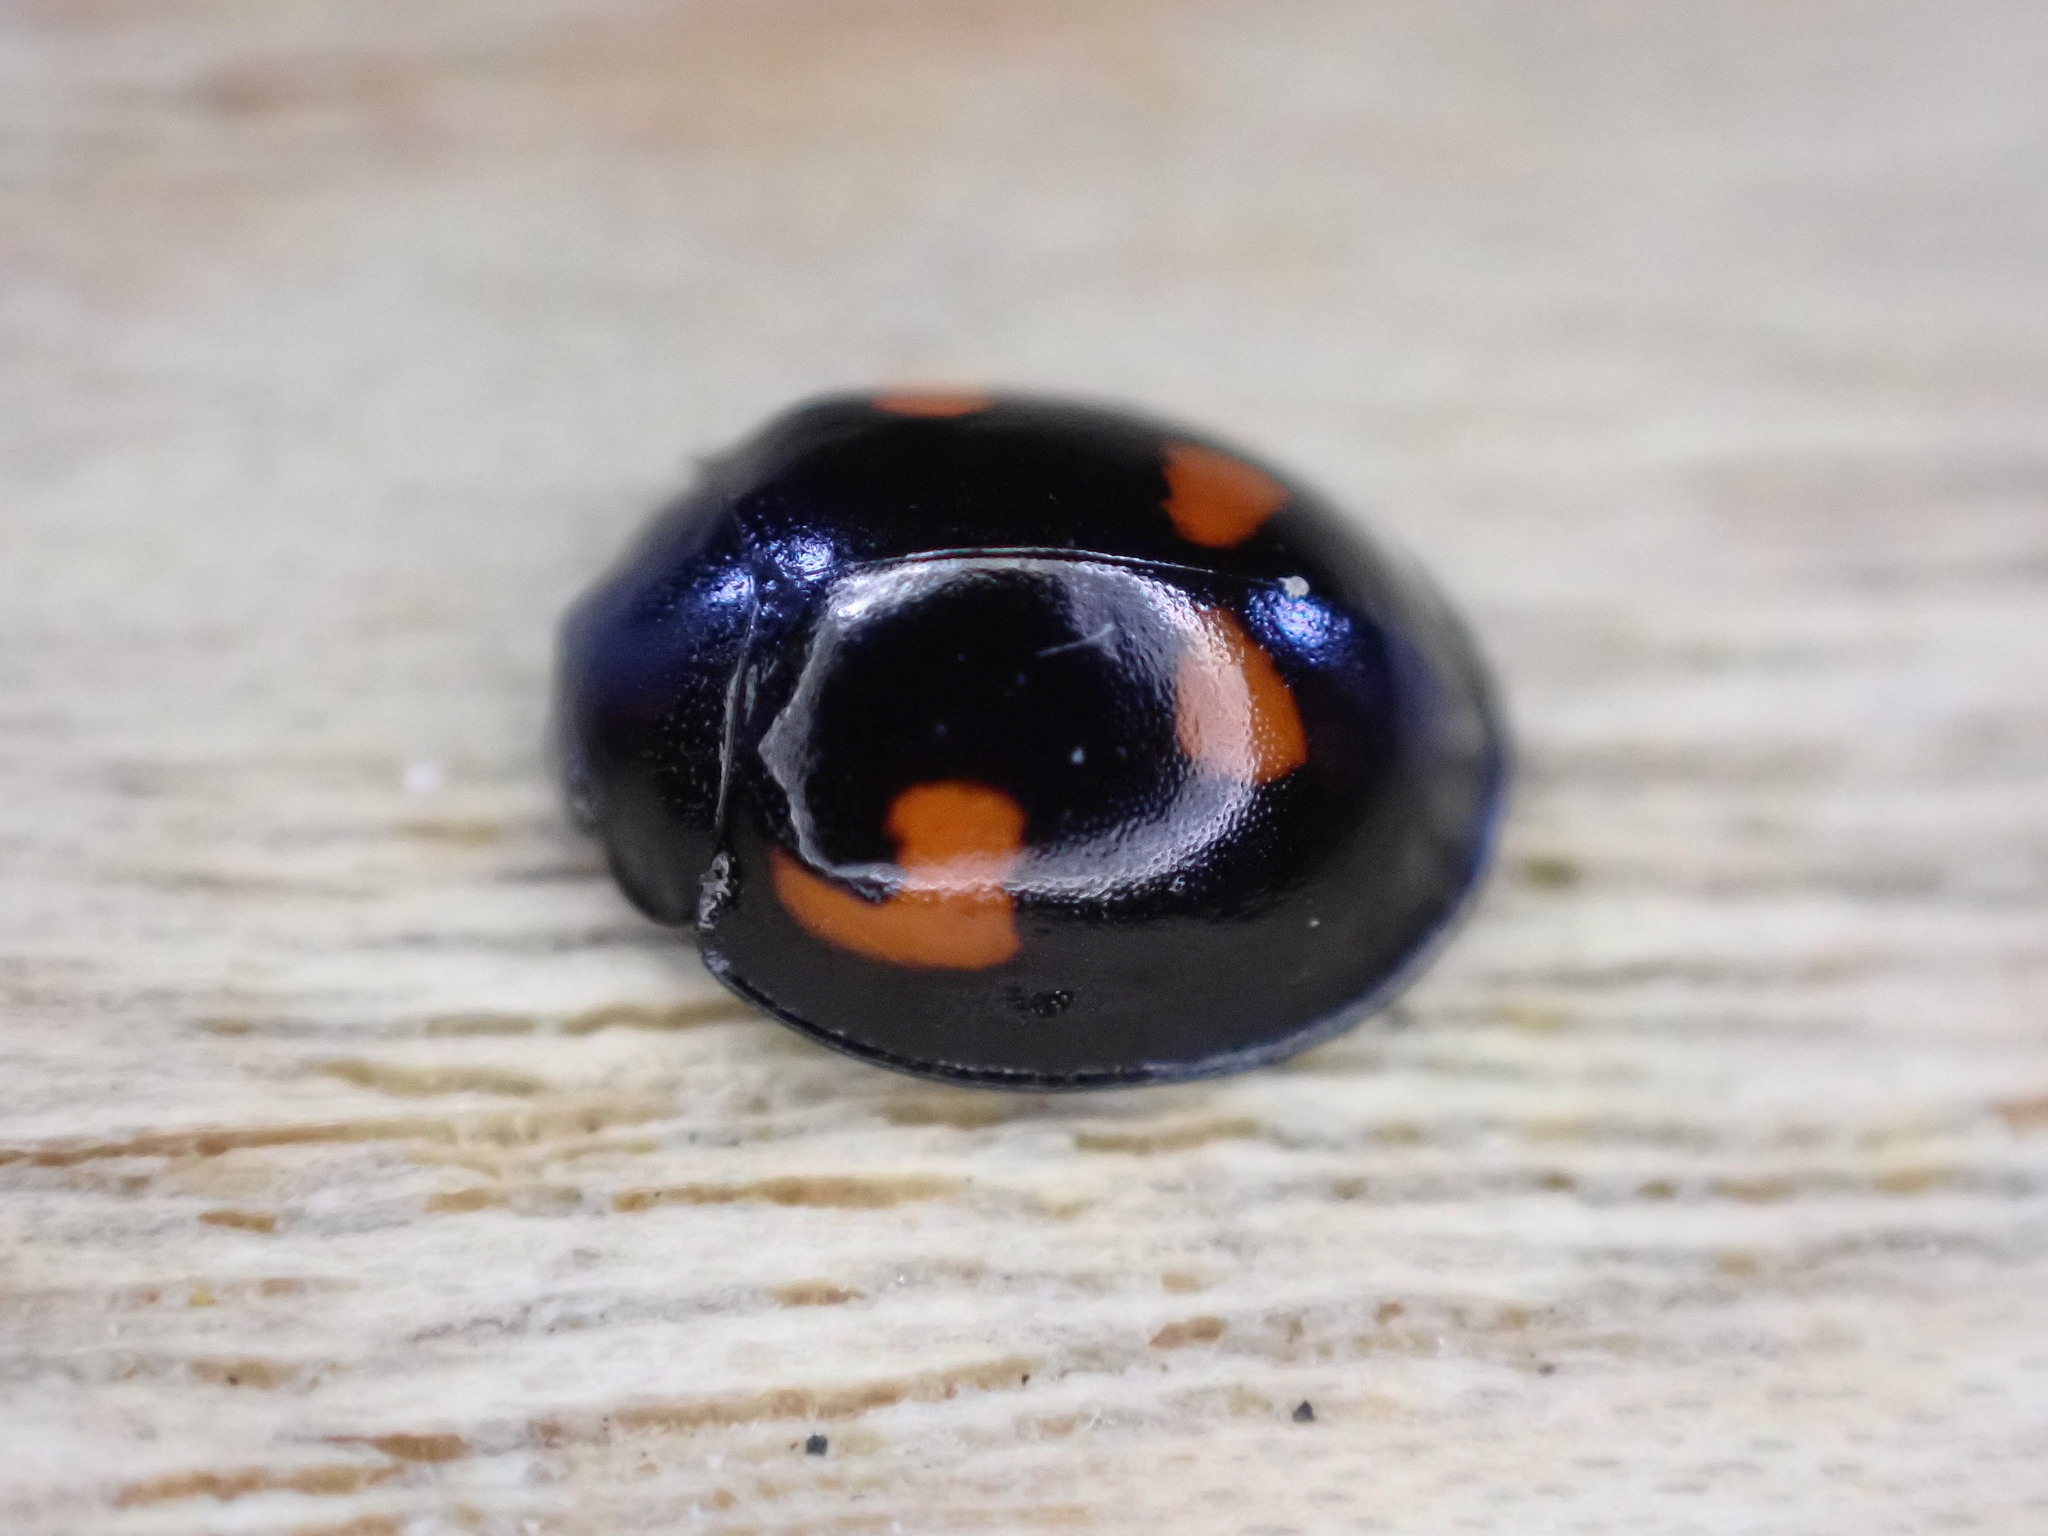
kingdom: Animalia
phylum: Arthropoda
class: Insecta
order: Coleoptera
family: Coccinellidae
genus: Brumus
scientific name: Brumus quadripustulatus
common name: Ladybird beetle
